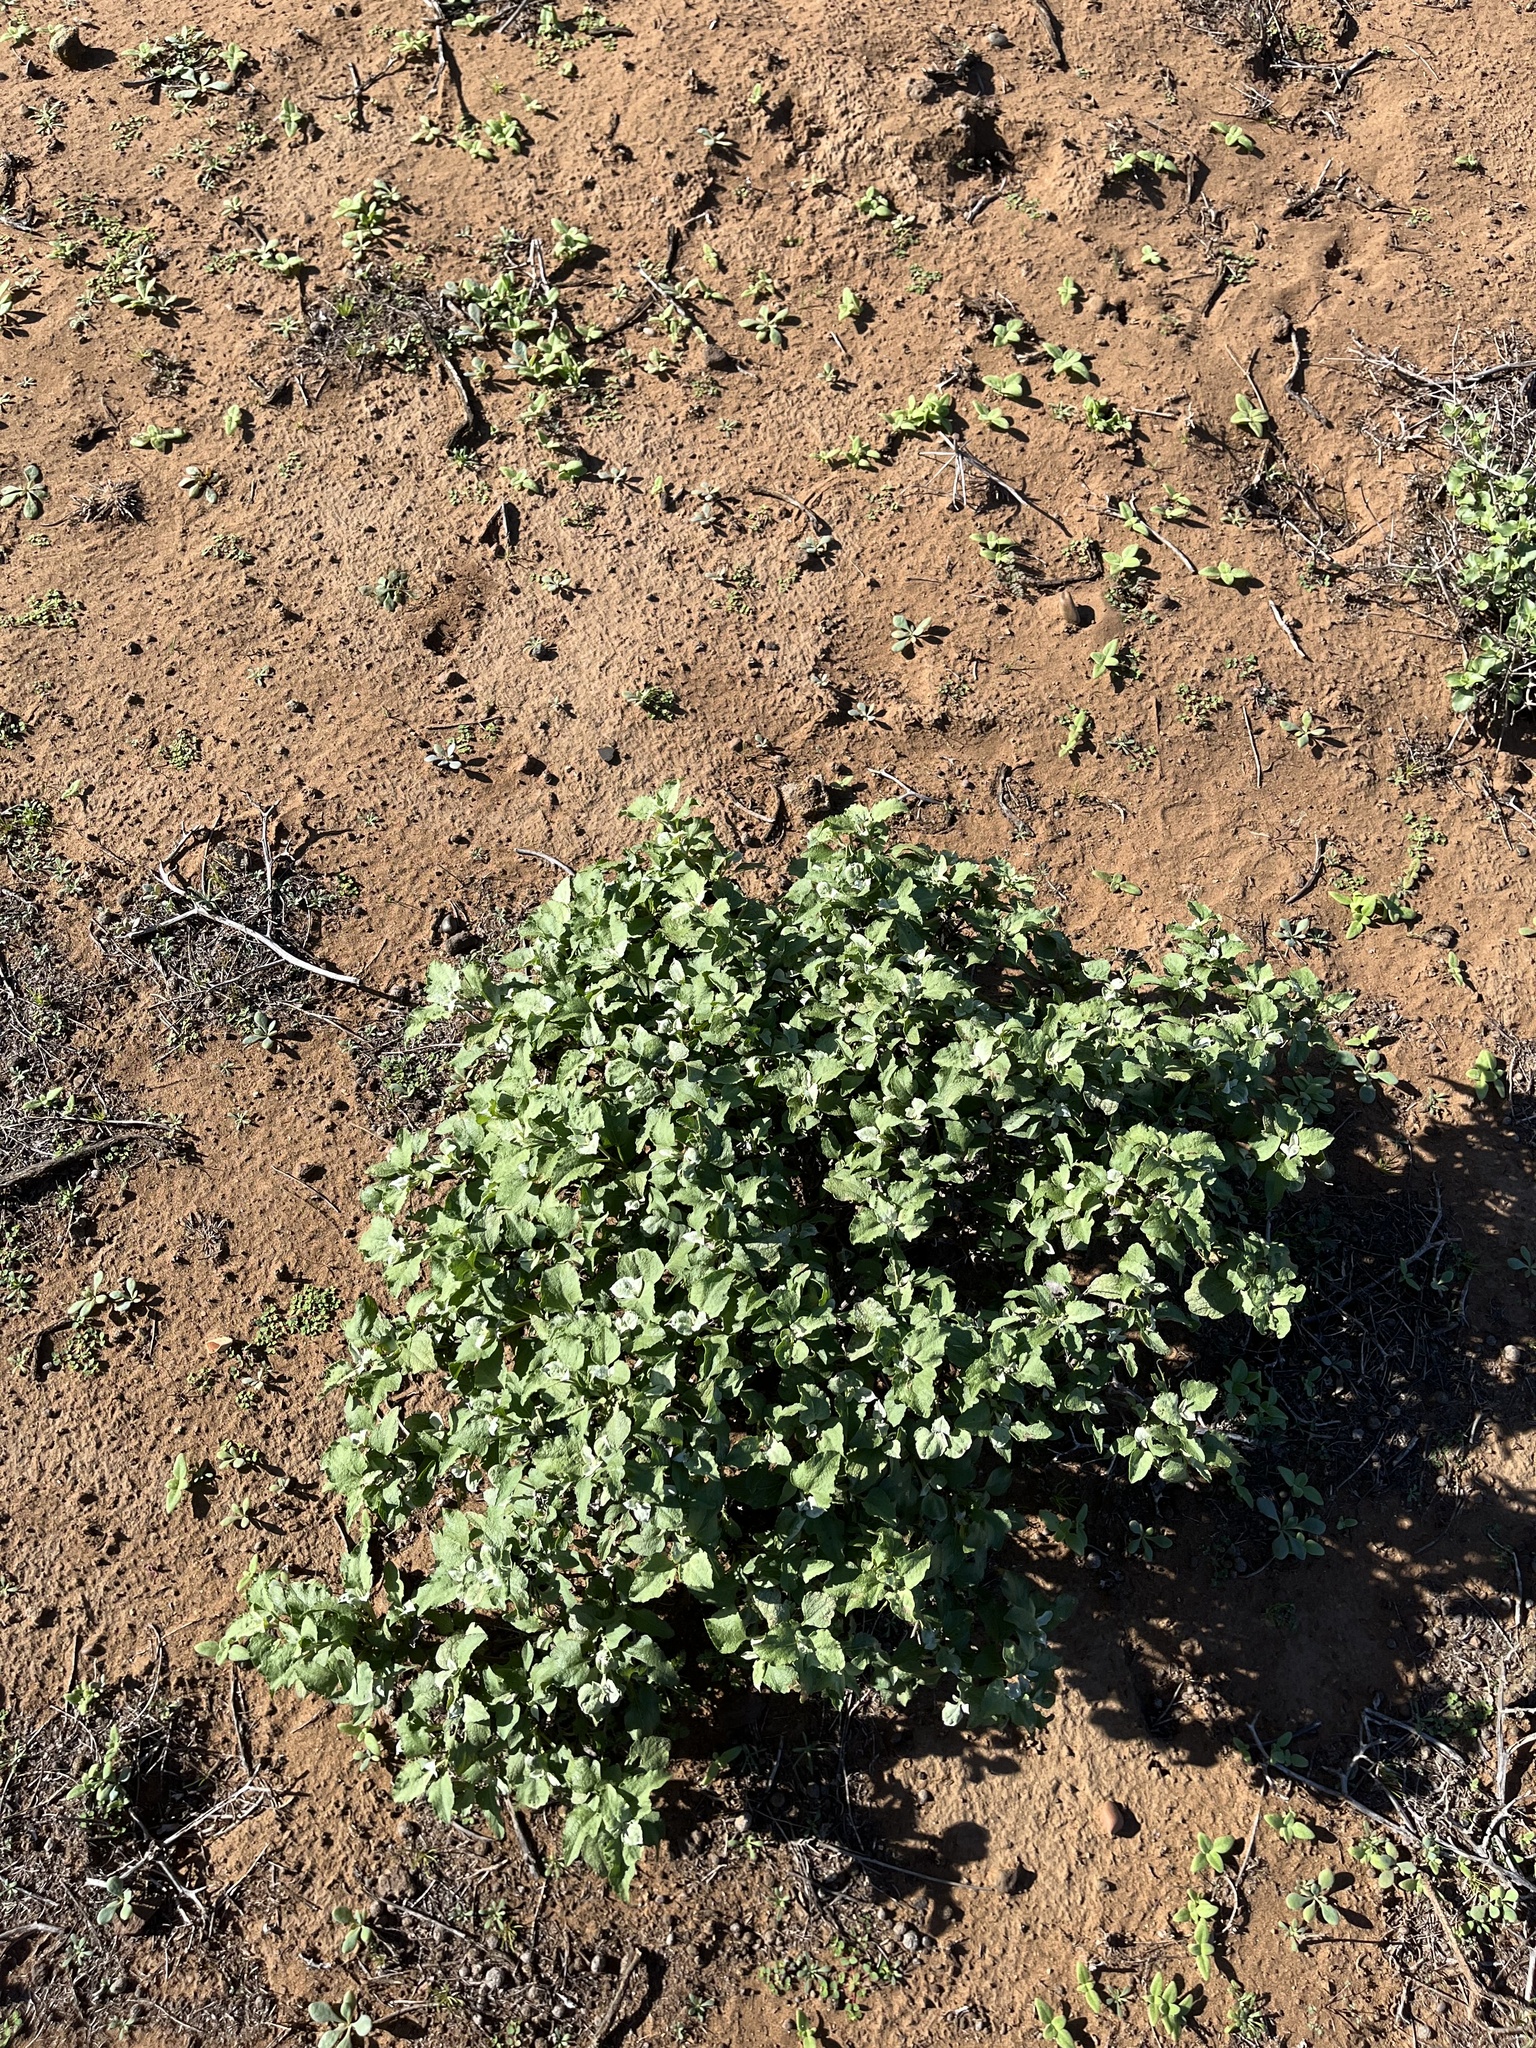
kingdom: Plantae
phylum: Tracheophyta
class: Magnoliopsida
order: Asterales
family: Asteraceae
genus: Ambrosia
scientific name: Ambrosia chenopodiifolia
